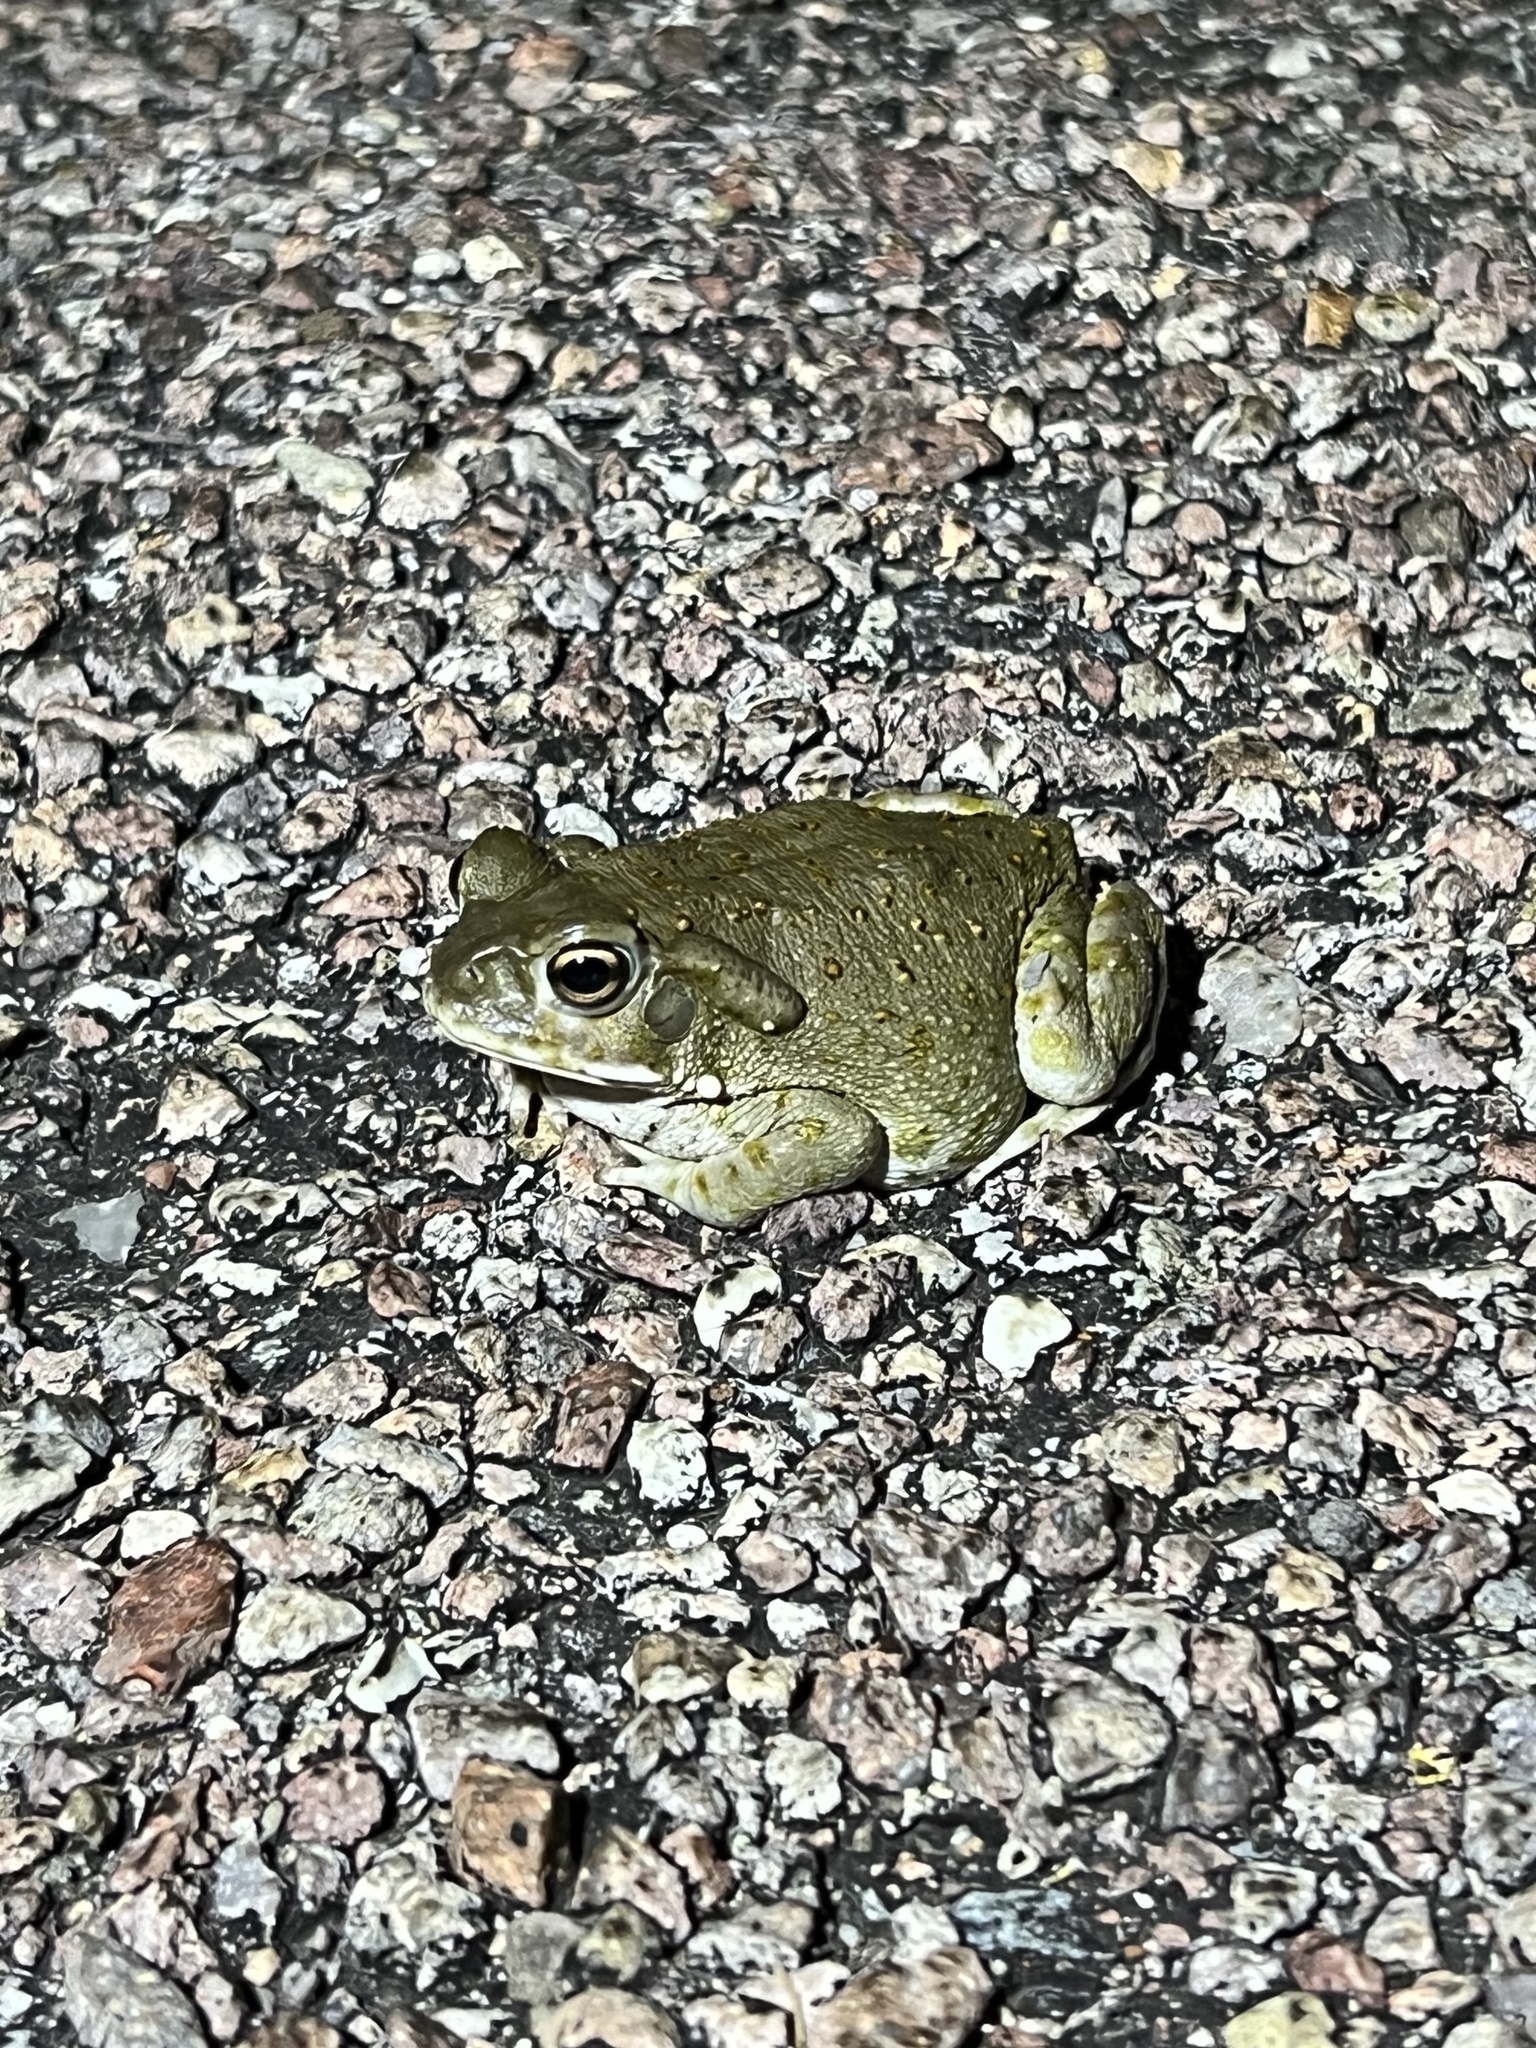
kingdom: Animalia
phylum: Chordata
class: Amphibia
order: Anura
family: Bufonidae
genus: Incilius
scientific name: Incilius alvarius
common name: Sonoran desert toad
